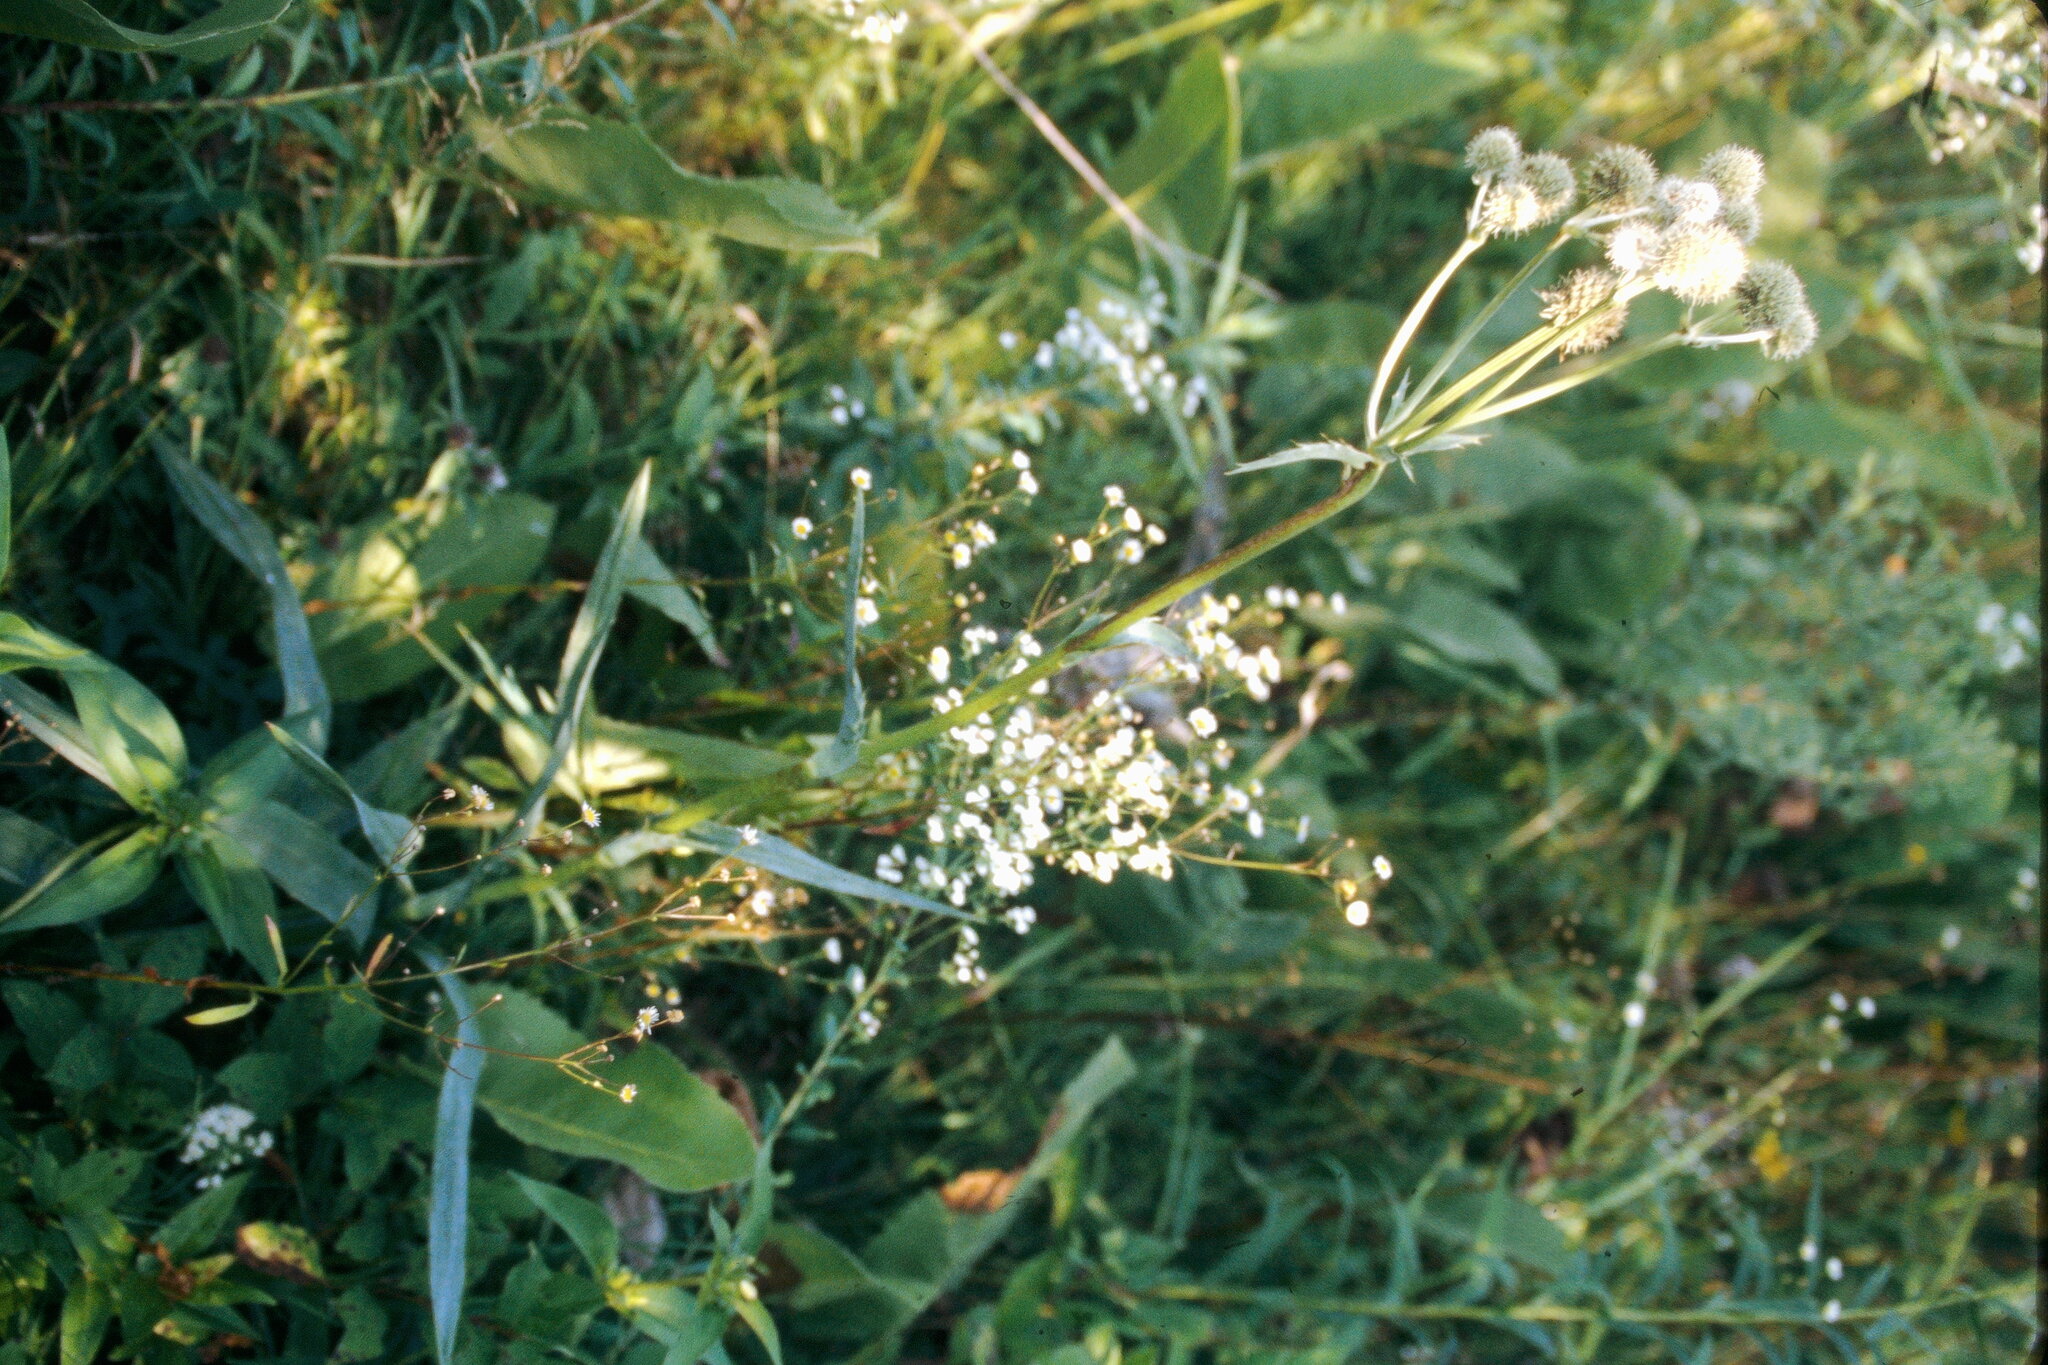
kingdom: Plantae
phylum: Tracheophyta
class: Magnoliopsida
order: Apiales
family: Apiaceae
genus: Eryngium
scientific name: Eryngium yuccifolium
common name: Button eryngo
